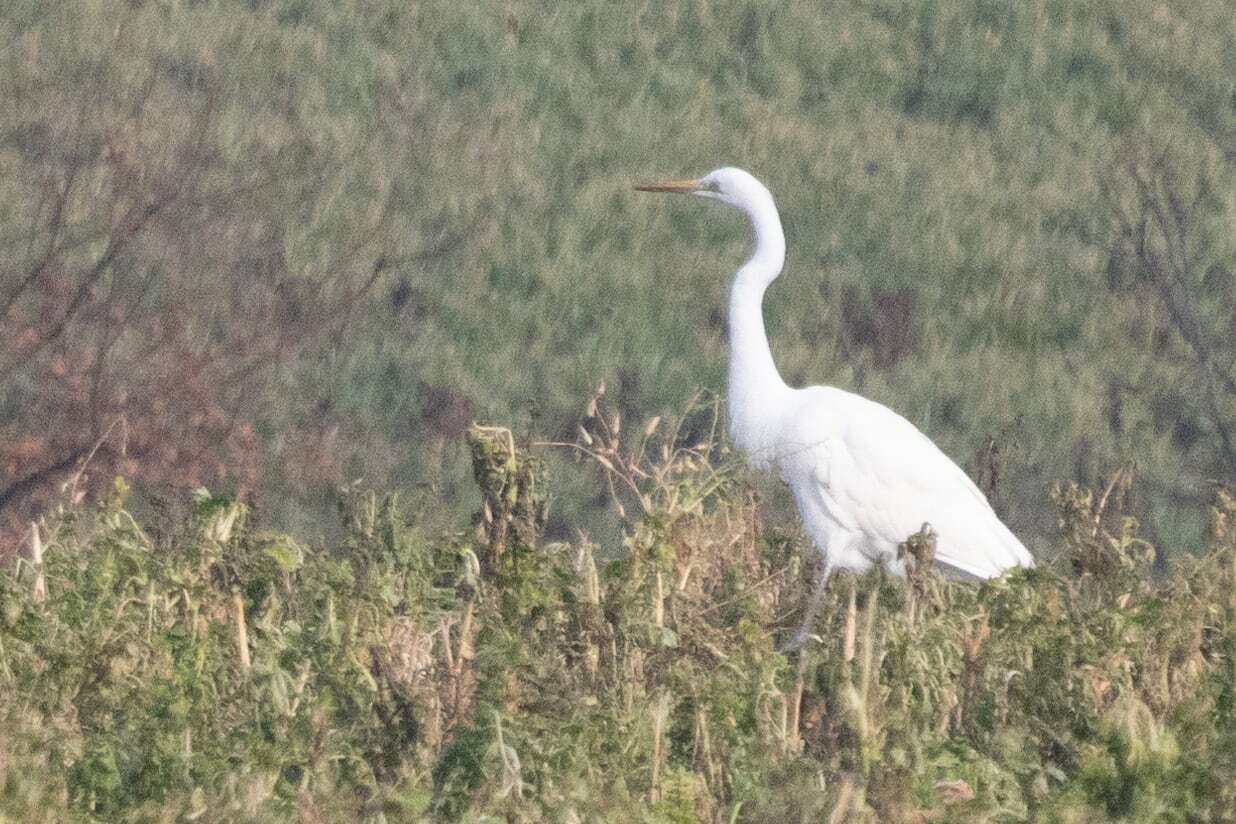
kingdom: Animalia
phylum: Chordata
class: Aves
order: Pelecaniformes
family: Ardeidae
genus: Ardea
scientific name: Ardea alba
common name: Great egret
